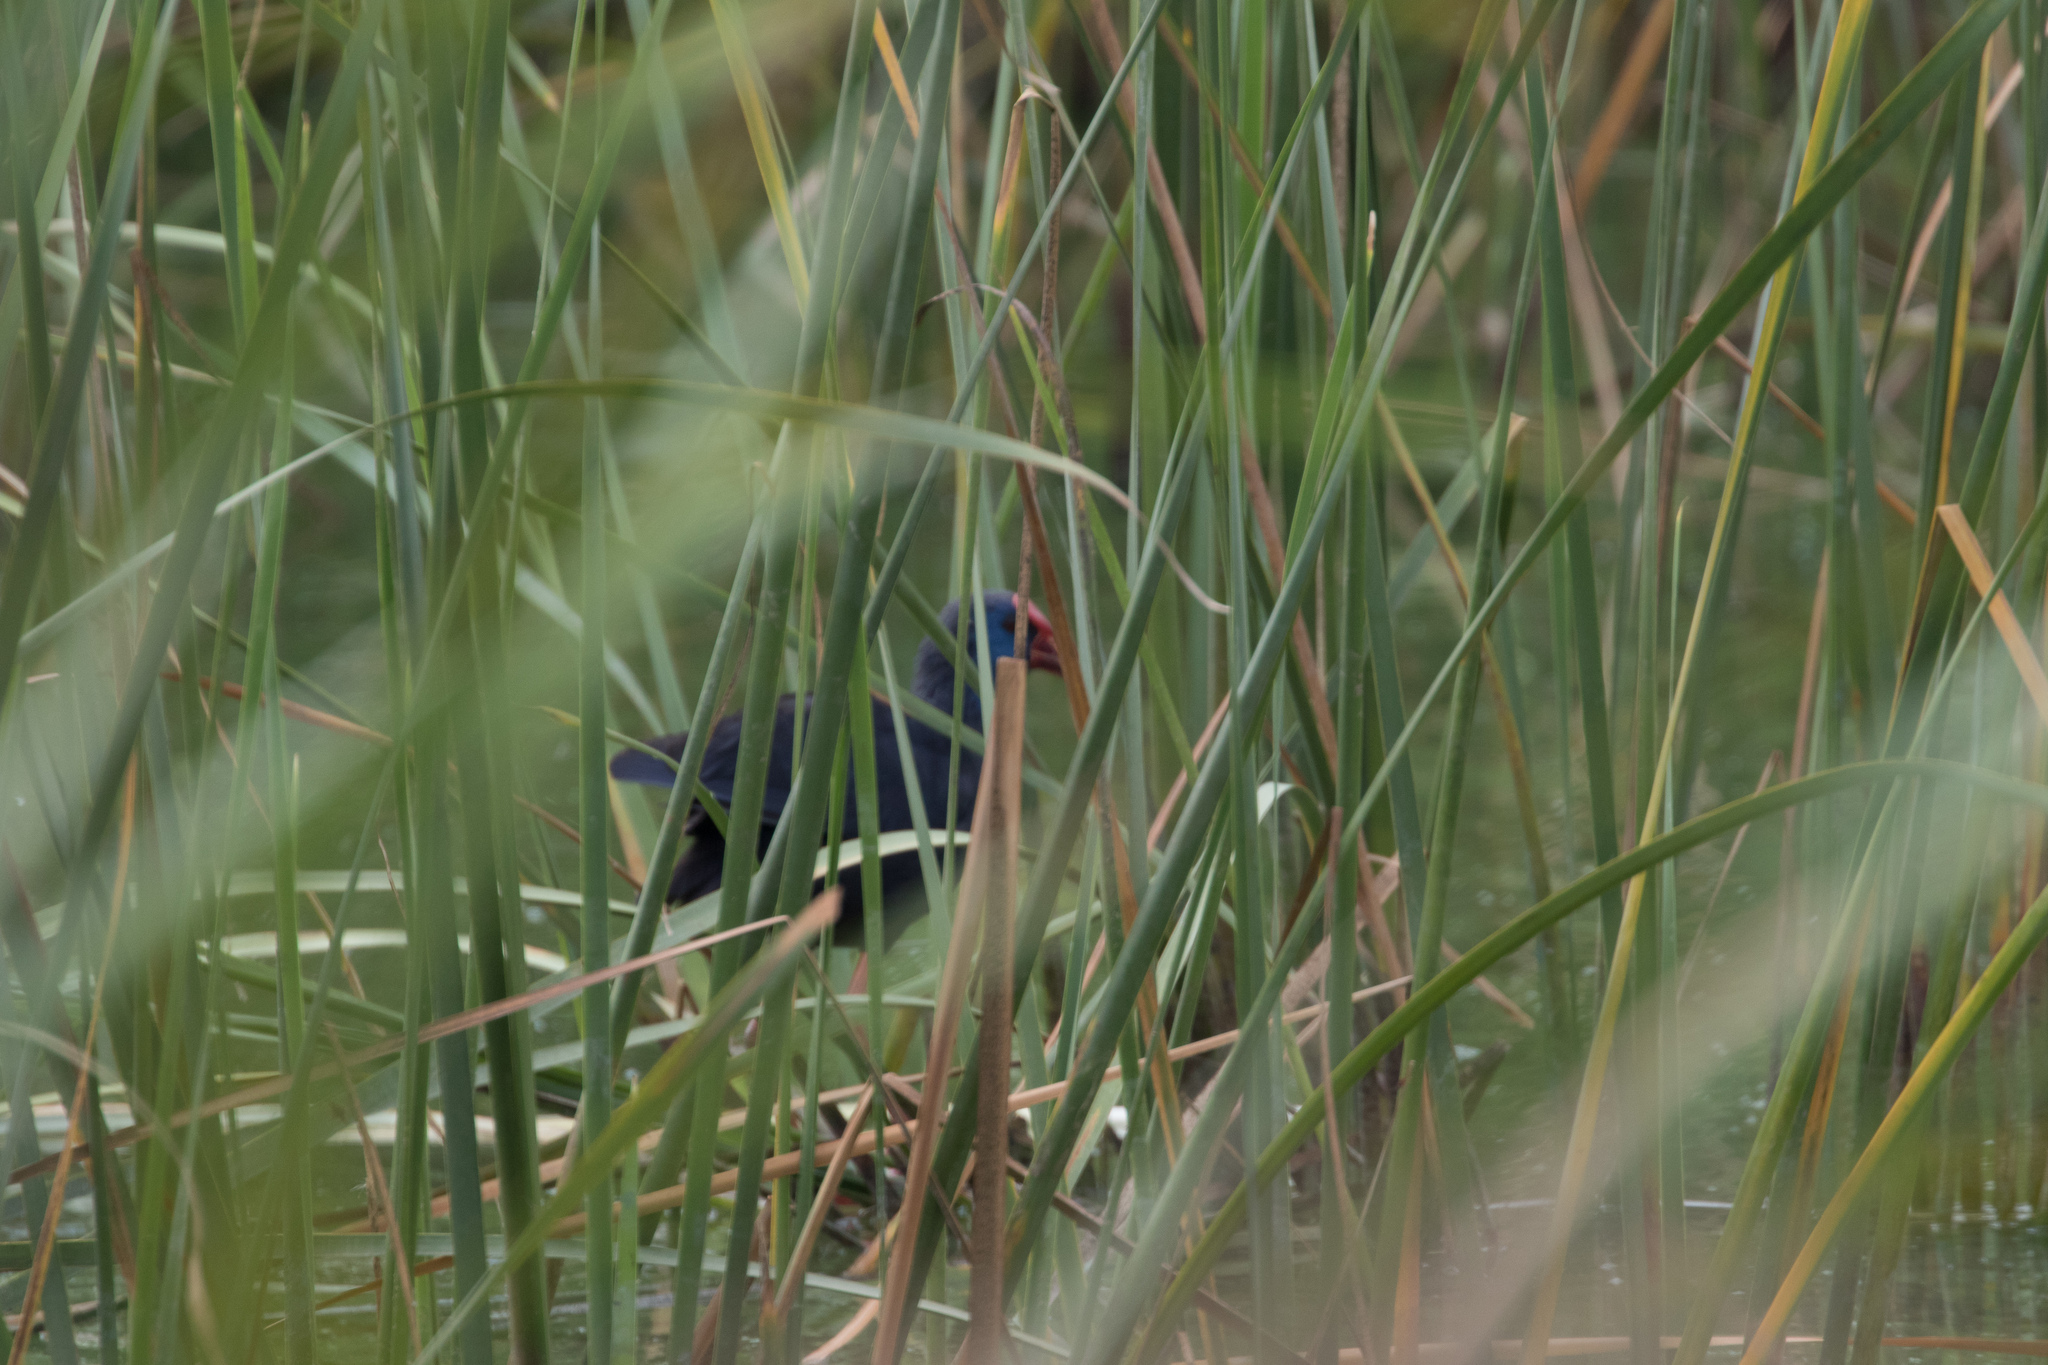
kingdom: Animalia
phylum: Chordata
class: Aves
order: Gruiformes
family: Rallidae
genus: Porphyrio
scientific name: Porphyrio porphyrio
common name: Purple swamphen
